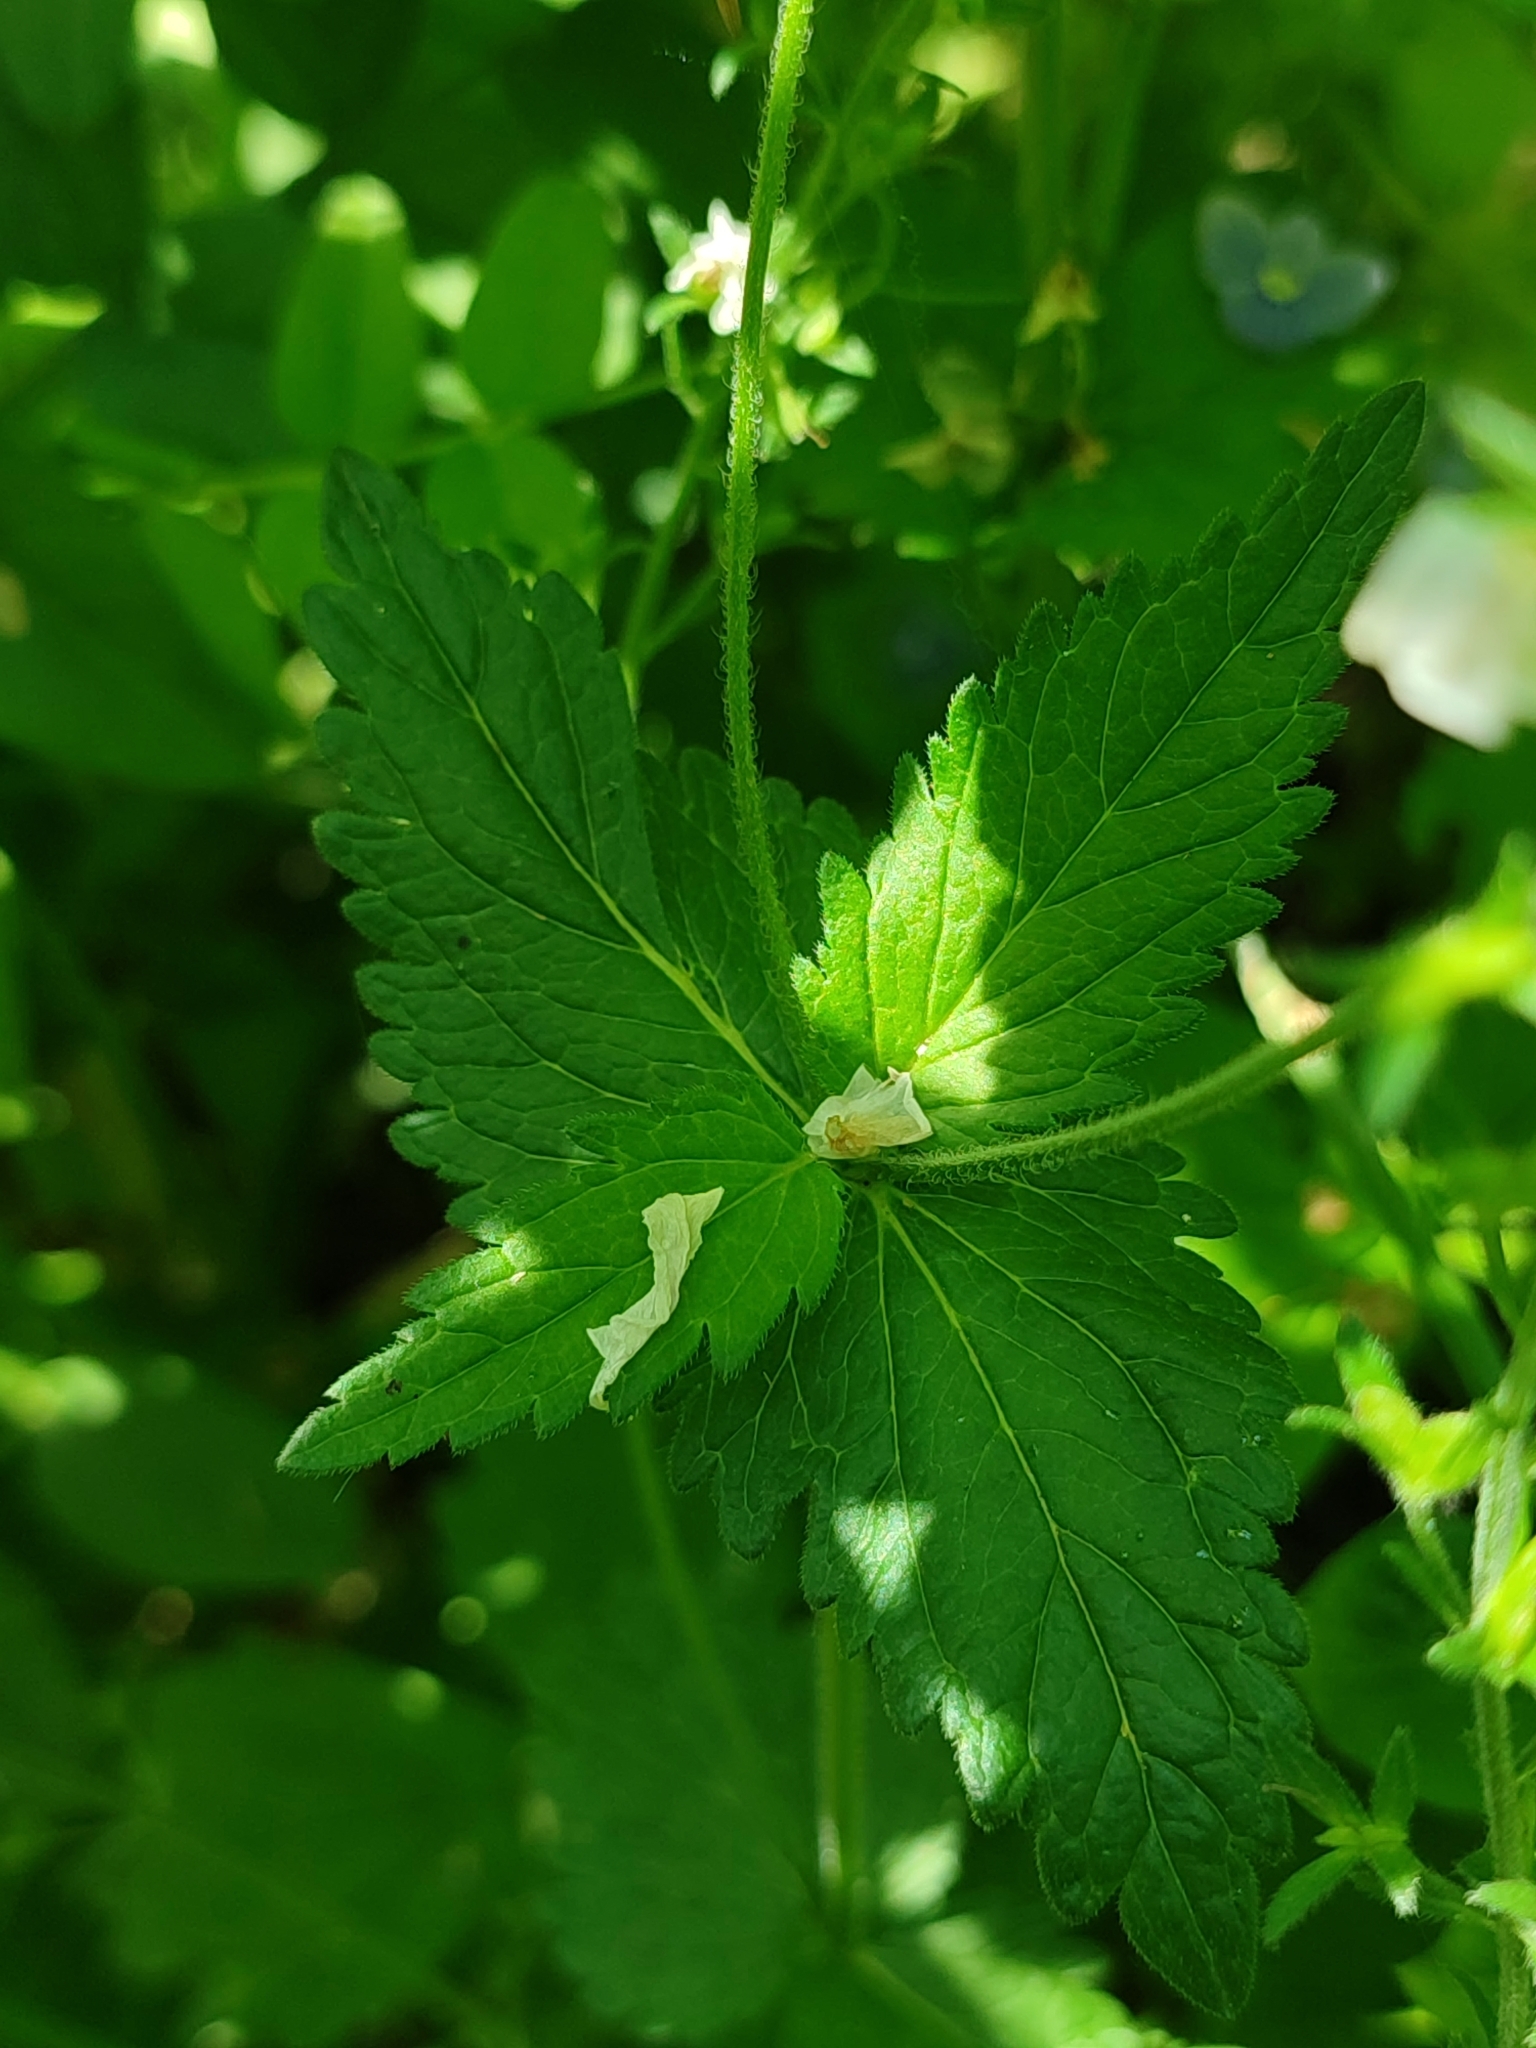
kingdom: Plantae
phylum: Tracheophyta
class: Magnoliopsida
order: Lamiales
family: Plantaginaceae
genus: Veronica
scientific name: Veronica chamaedrys
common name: Germander speedwell
